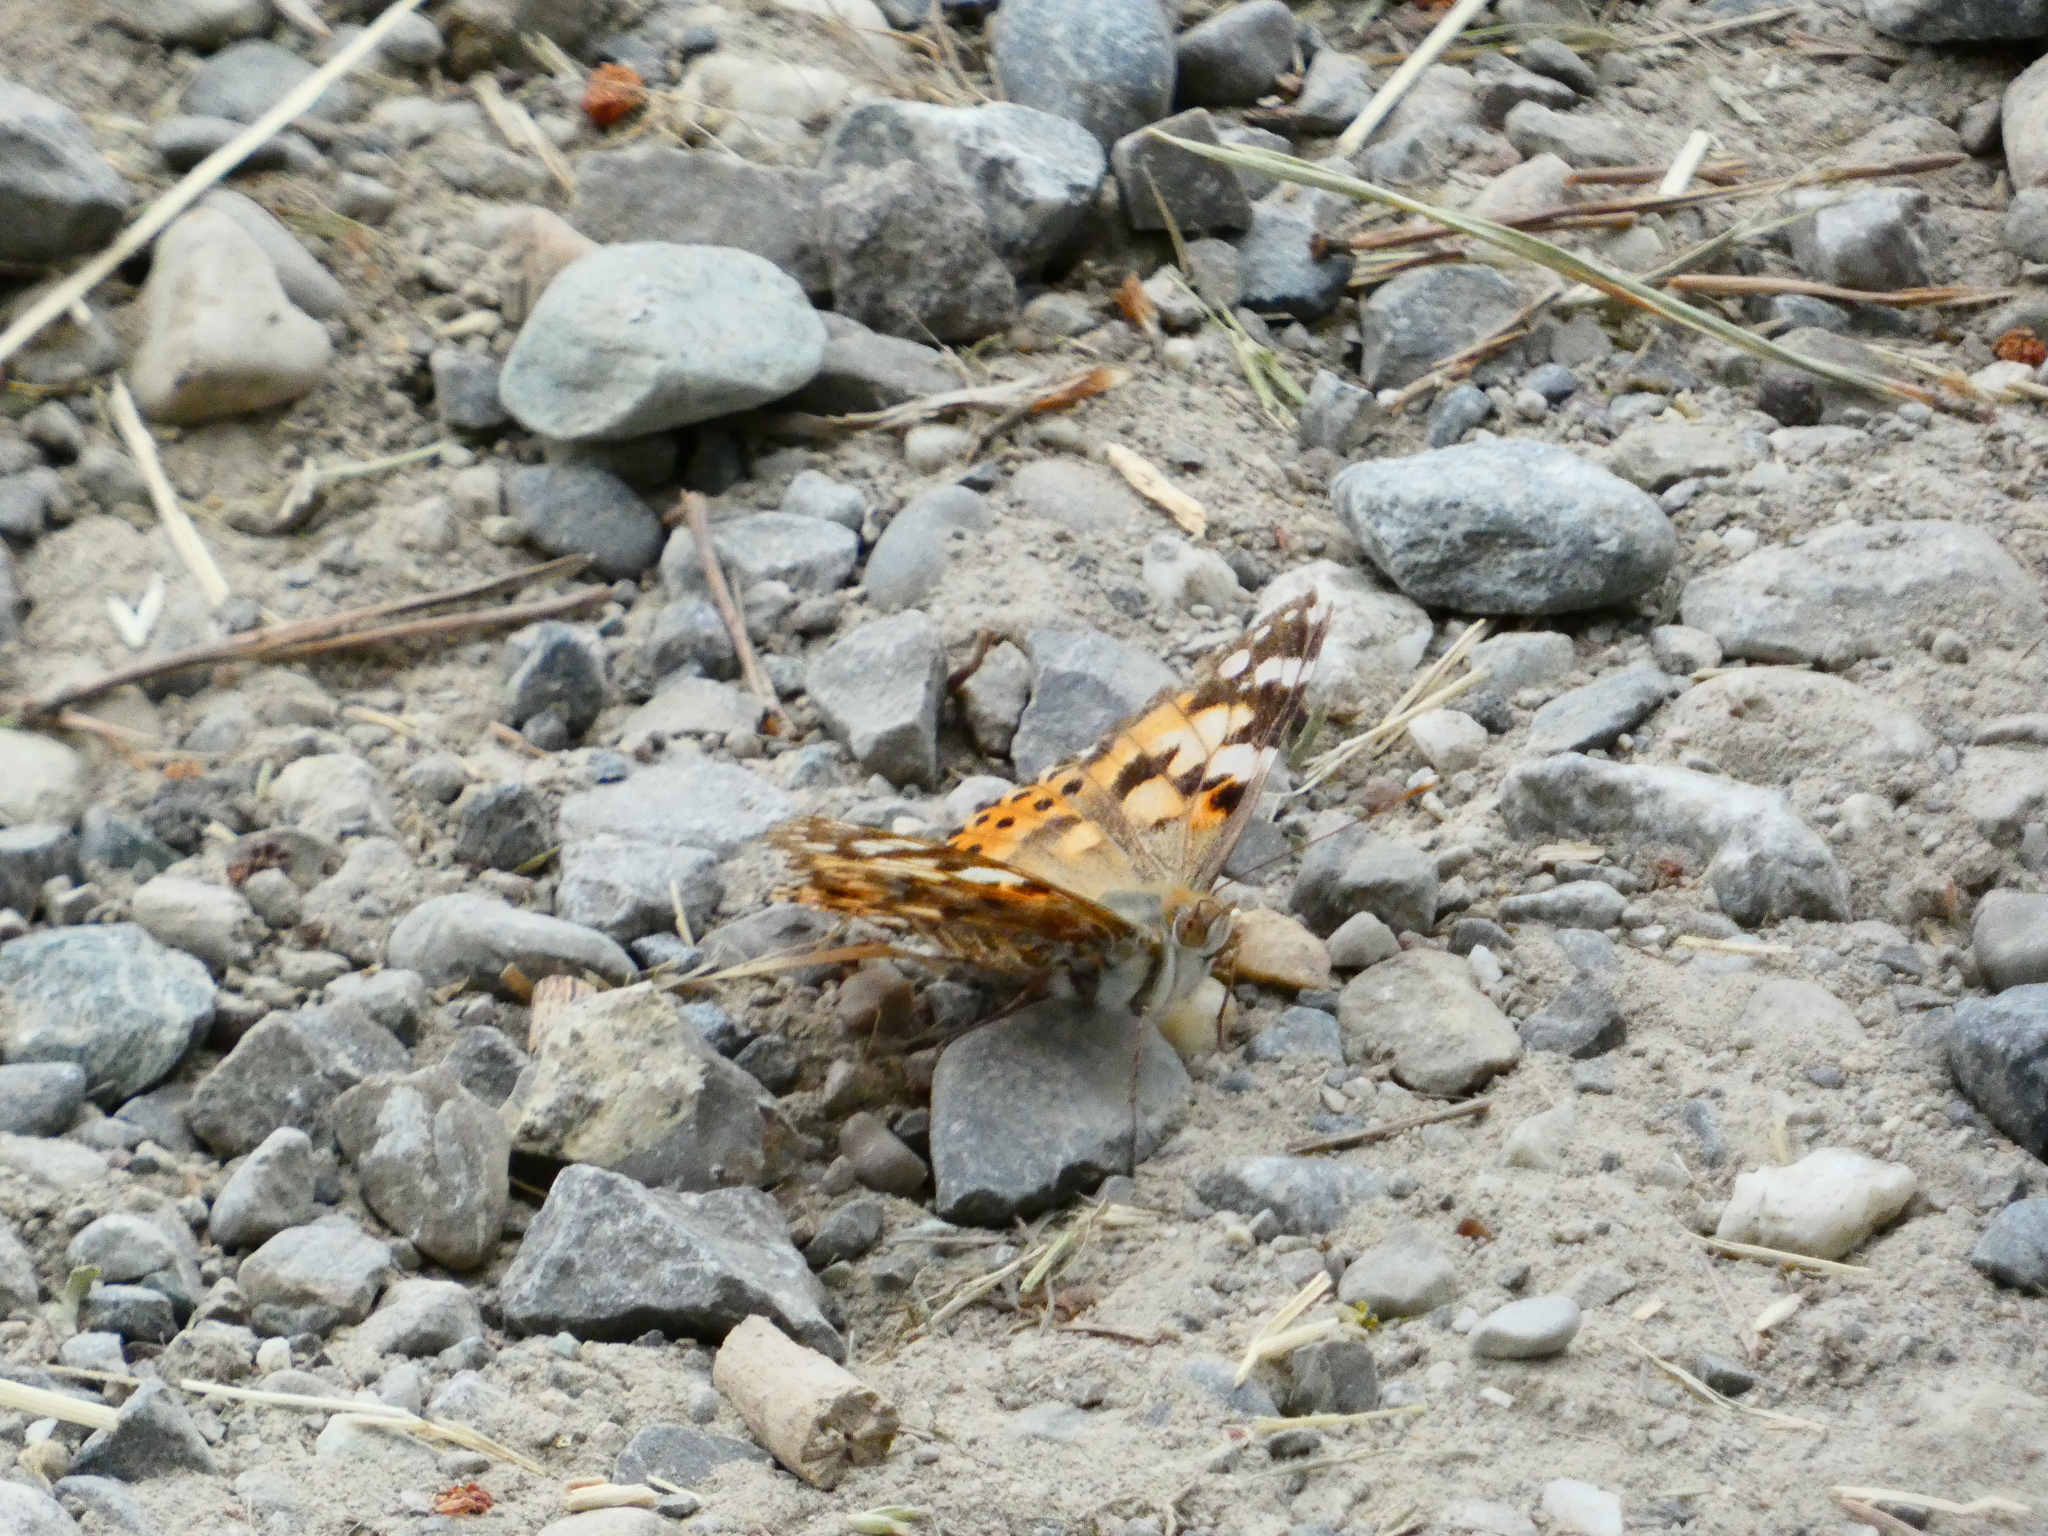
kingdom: Animalia
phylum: Arthropoda
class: Insecta
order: Lepidoptera
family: Nymphalidae
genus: Vanessa
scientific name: Vanessa cardui
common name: Painted lady
